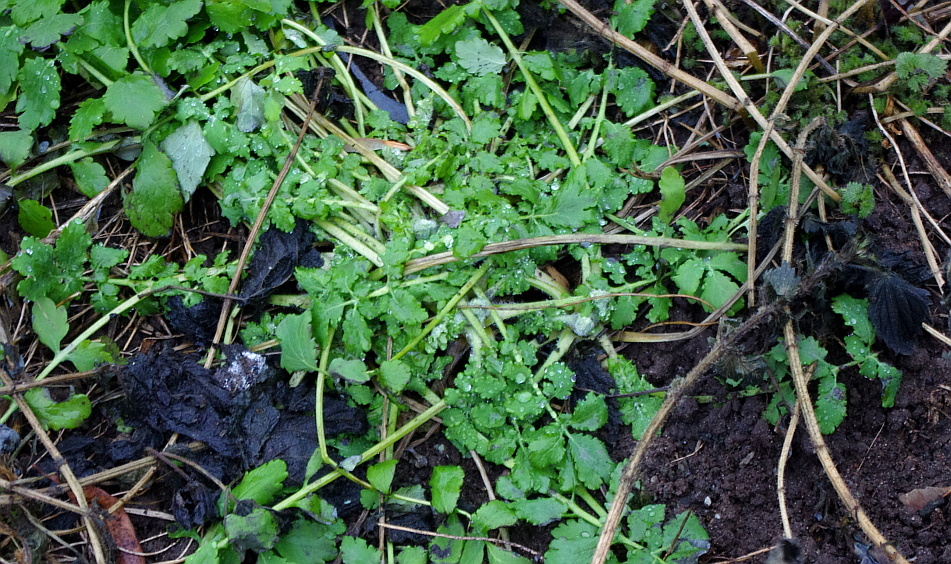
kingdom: Plantae
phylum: Tracheophyta
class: Magnoliopsida
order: Ranunculales
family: Papaveraceae
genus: Chelidonium
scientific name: Chelidonium majus
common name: Greater celandine
